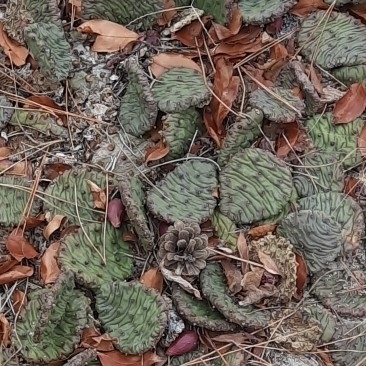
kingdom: Plantae
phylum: Tracheophyta
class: Magnoliopsida
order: Caryophyllales
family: Cactaceae
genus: Opuntia
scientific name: Opuntia humifusa
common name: Eastern prickly-pear
